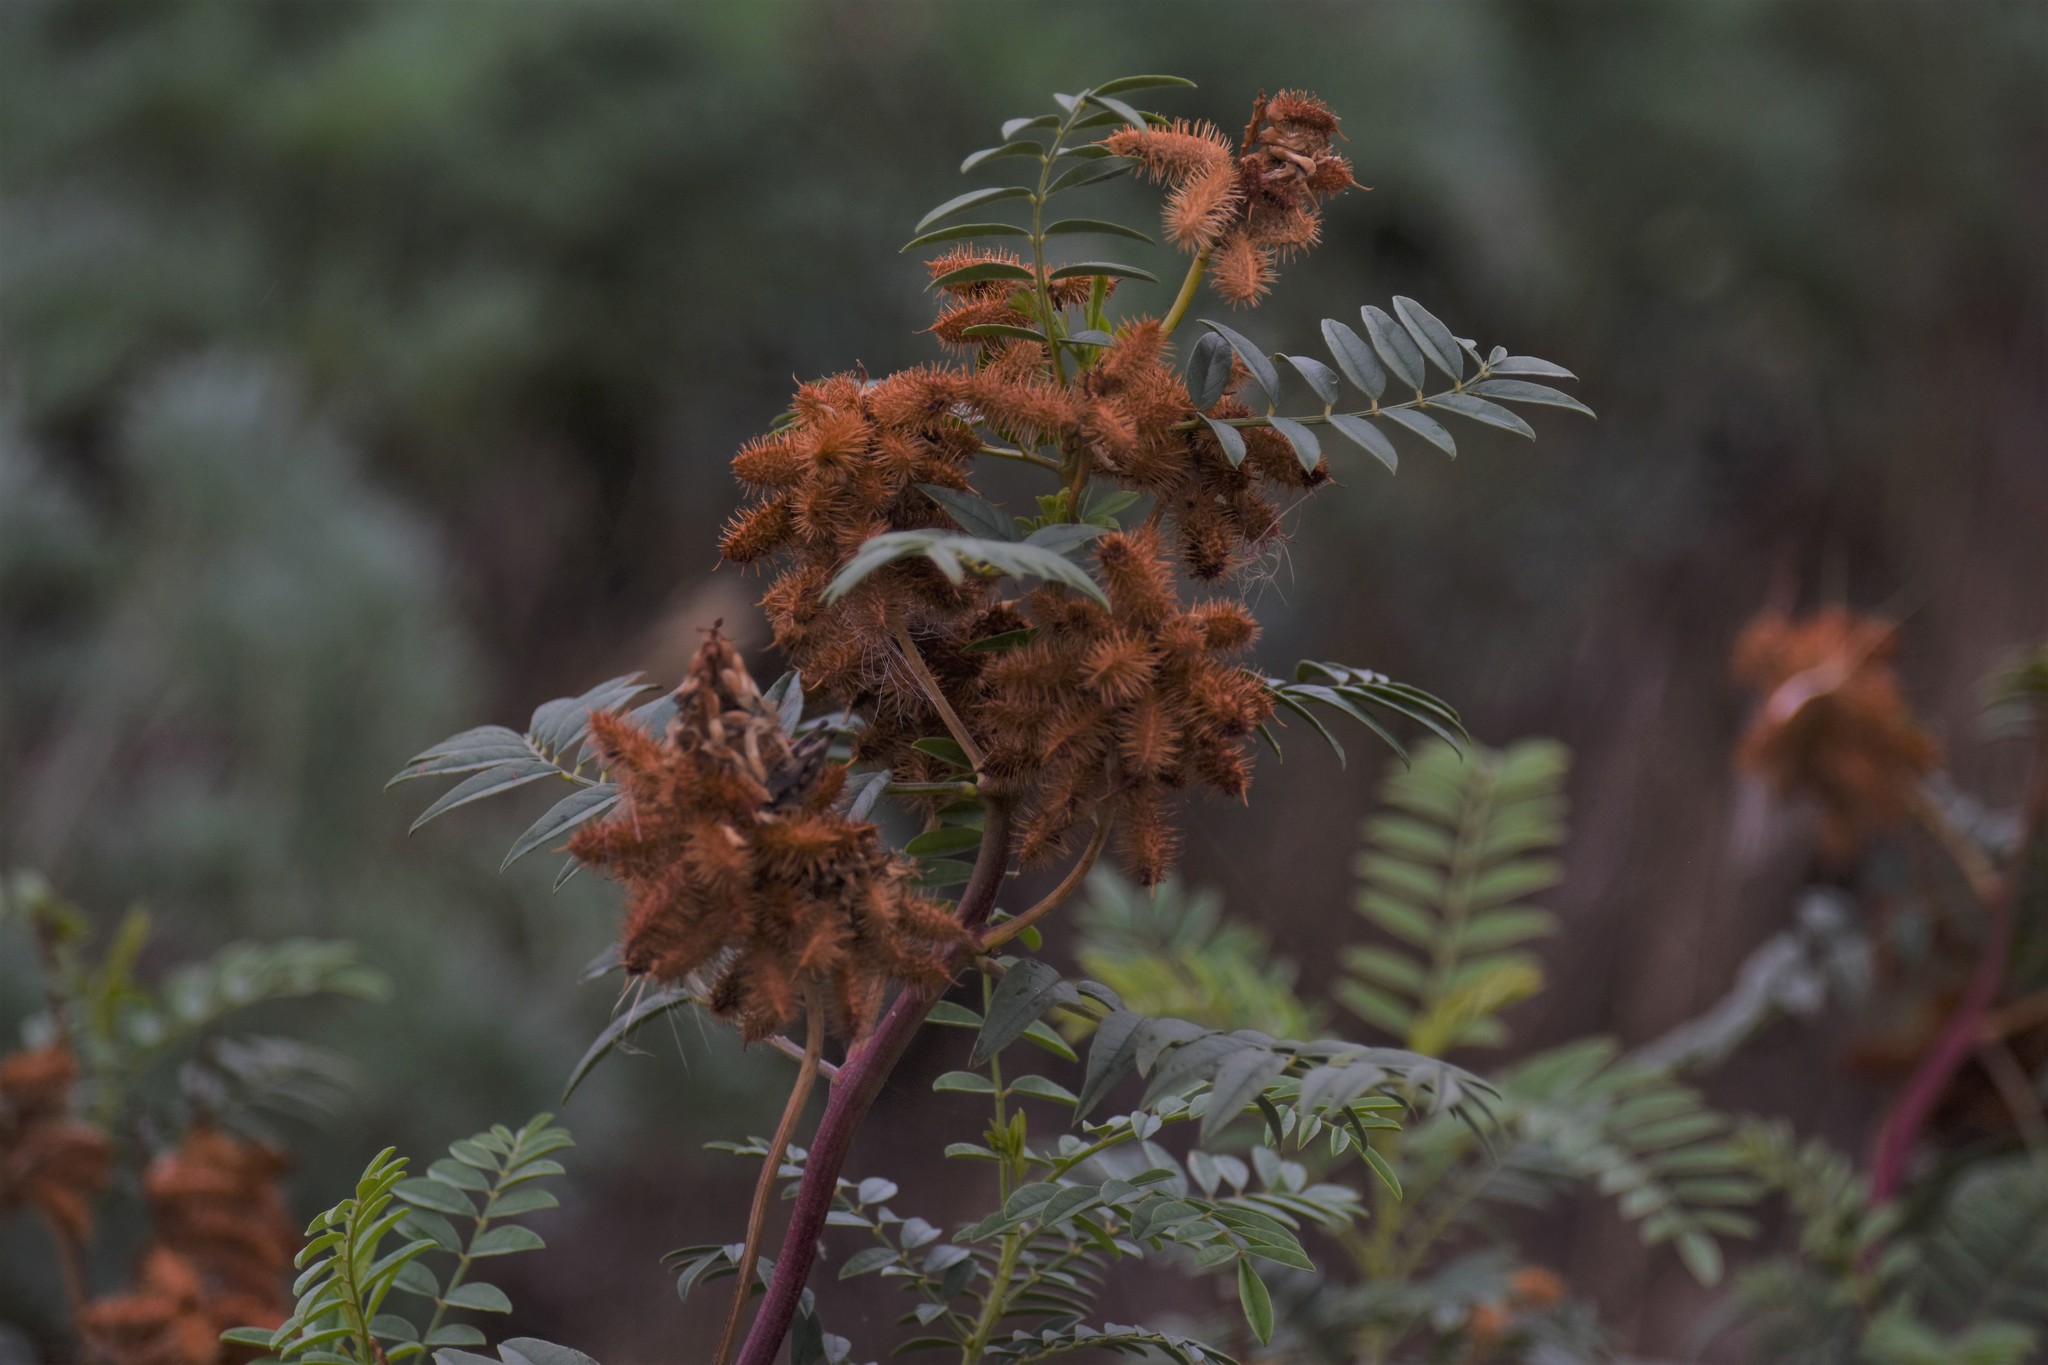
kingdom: Plantae
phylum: Tracheophyta
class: Magnoliopsida
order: Fabales
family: Fabaceae
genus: Glycyrrhiza
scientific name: Glycyrrhiza lepidota
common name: American liquorice
